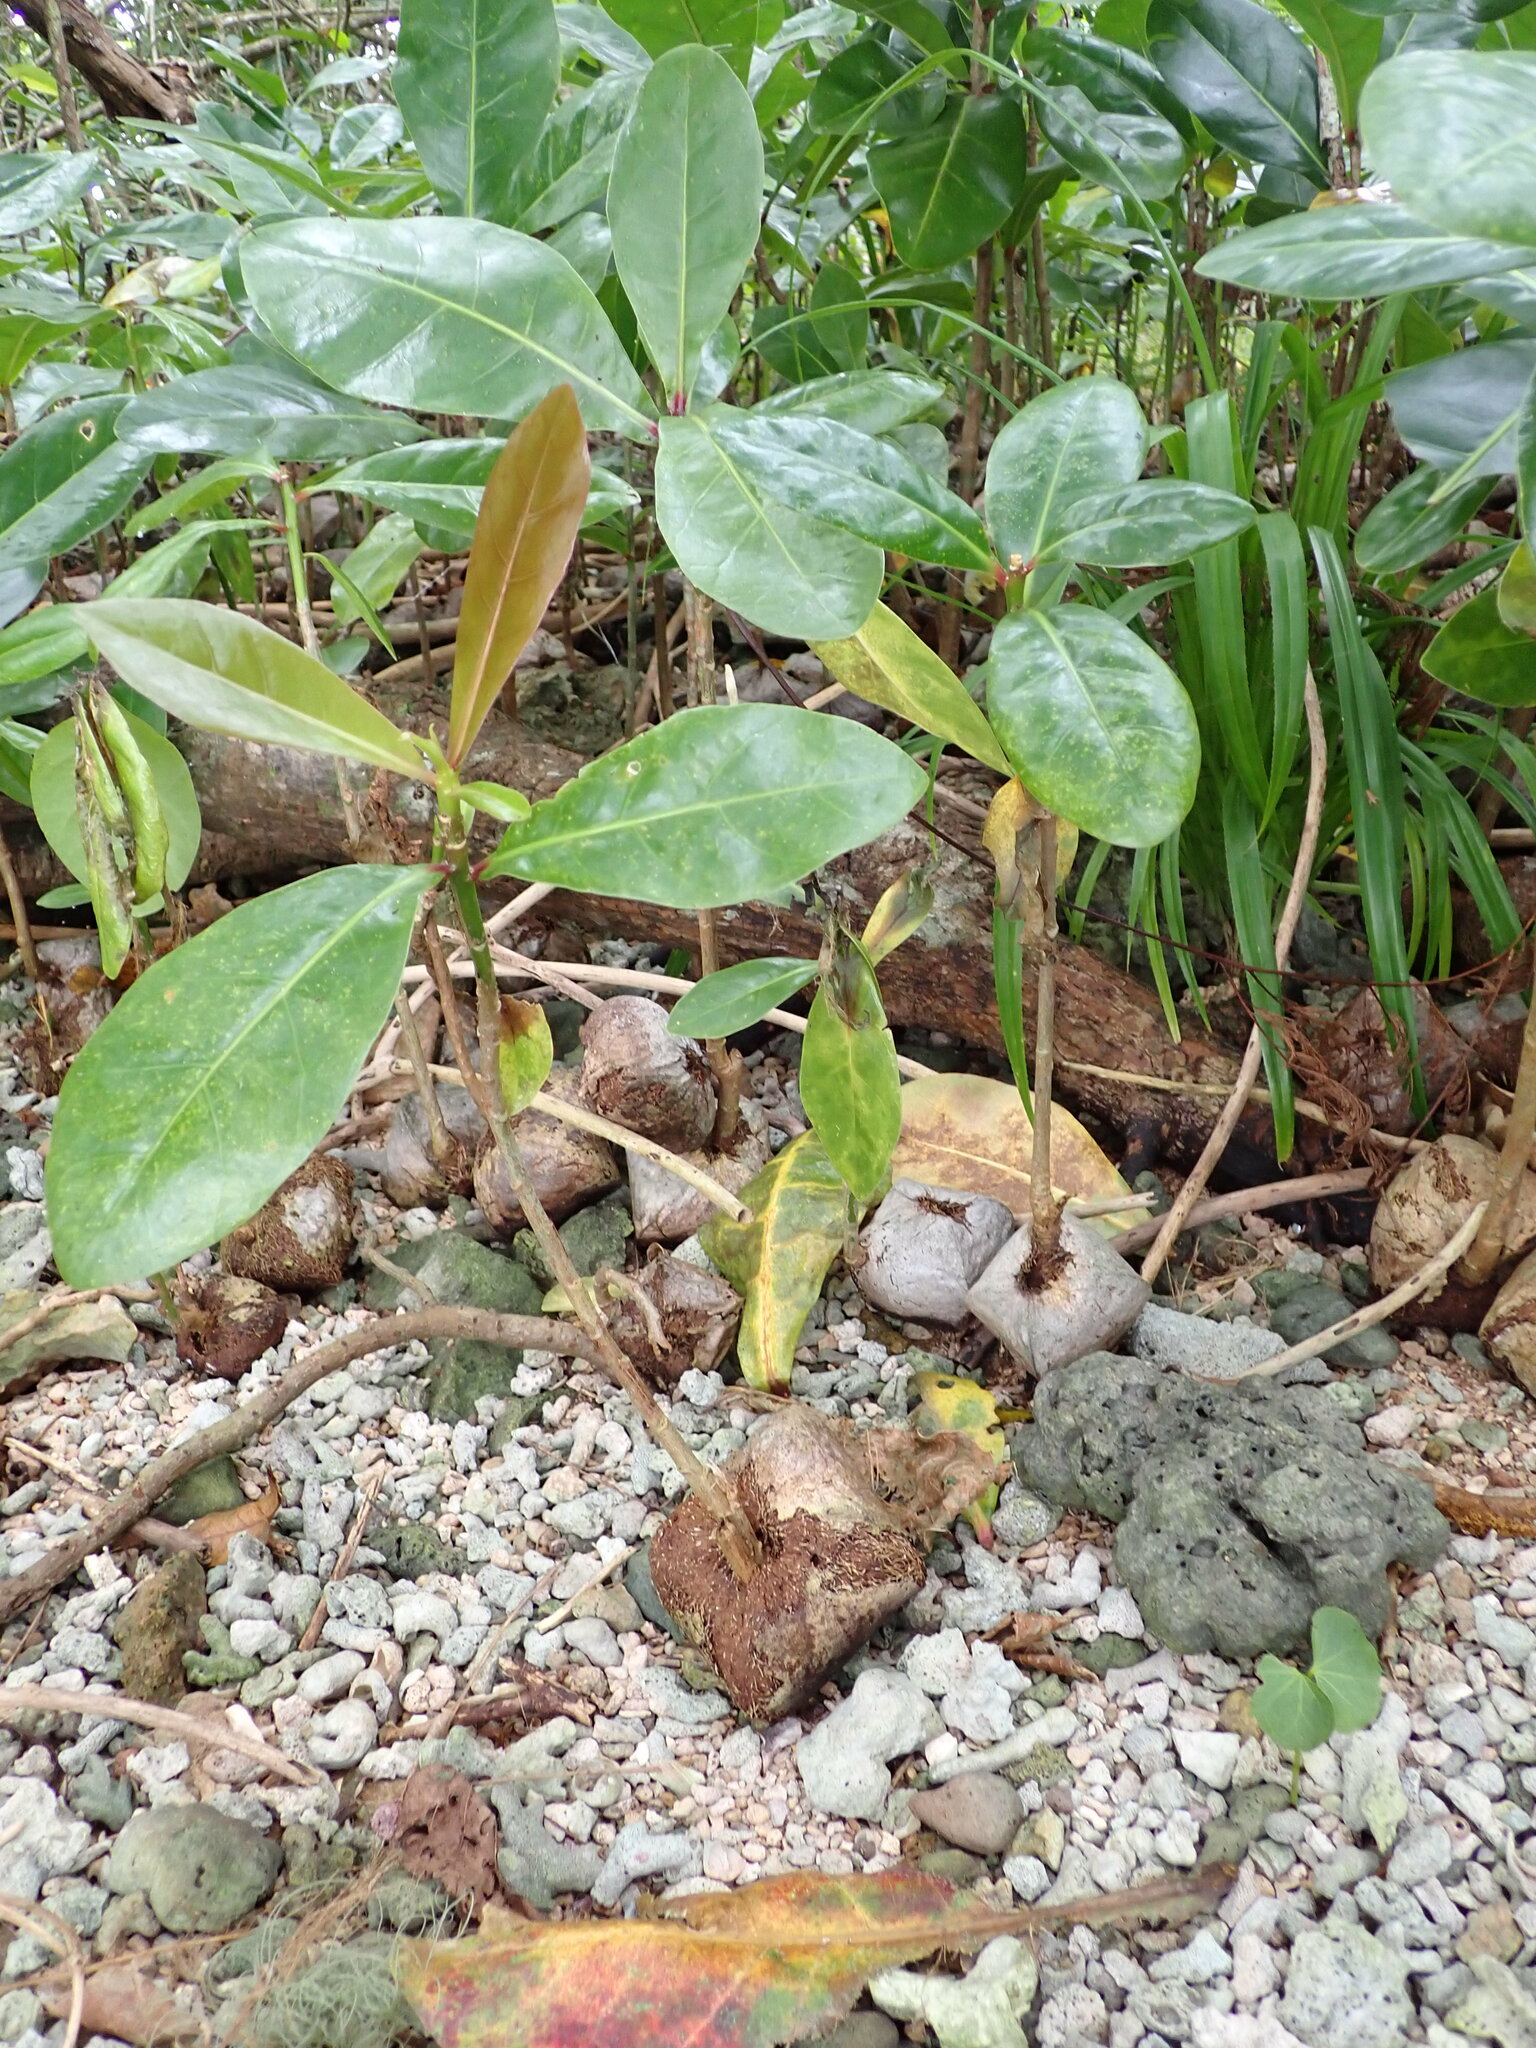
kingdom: Plantae
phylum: Tracheophyta
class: Magnoliopsida
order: Ericales
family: Lecythidaceae
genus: Barringtonia
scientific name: Barringtonia asiatica
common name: Mango-pine
